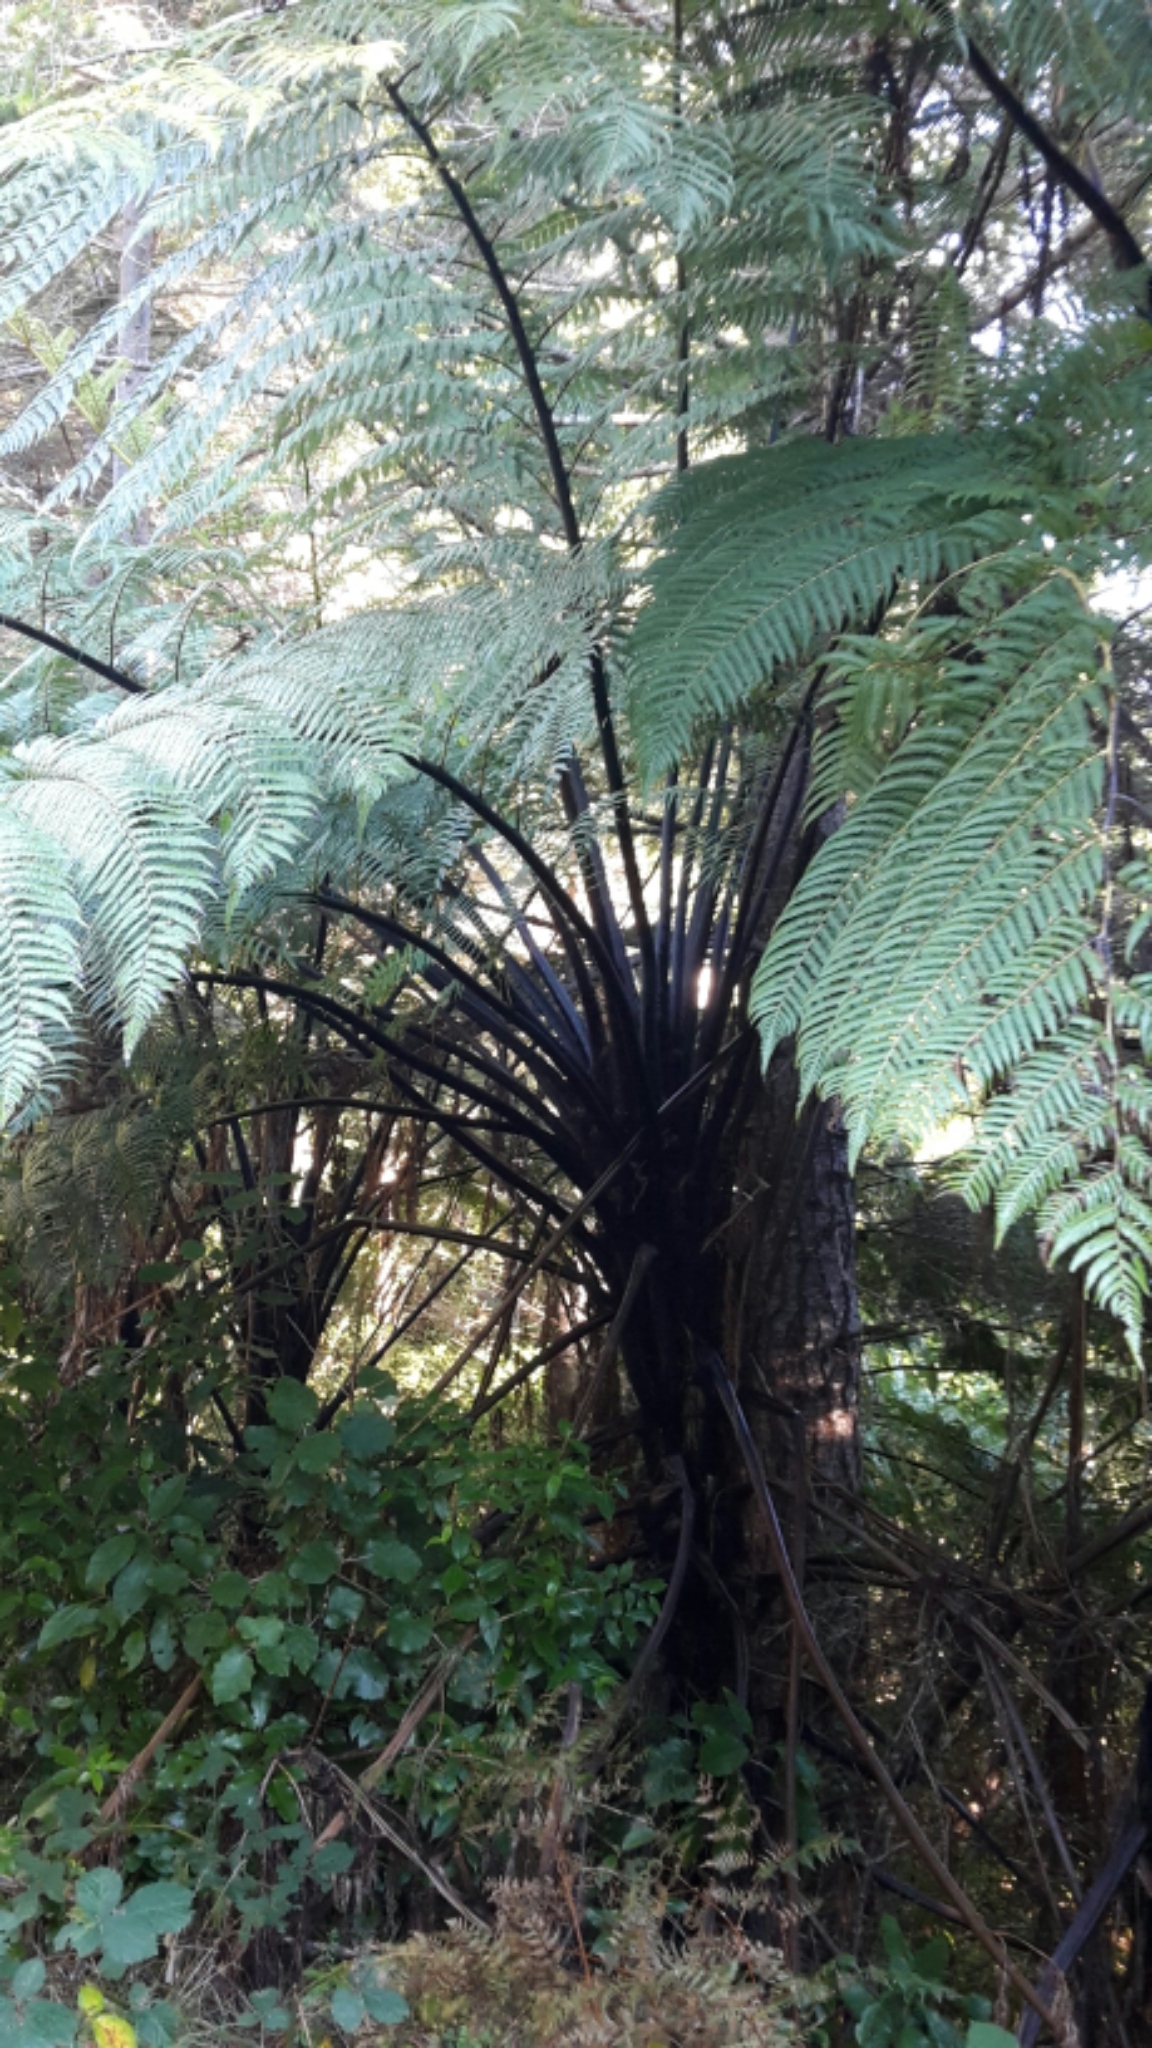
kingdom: Plantae
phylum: Tracheophyta
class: Polypodiopsida
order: Cyatheales
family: Cyatheaceae
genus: Sphaeropteris
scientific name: Sphaeropteris medullaris
